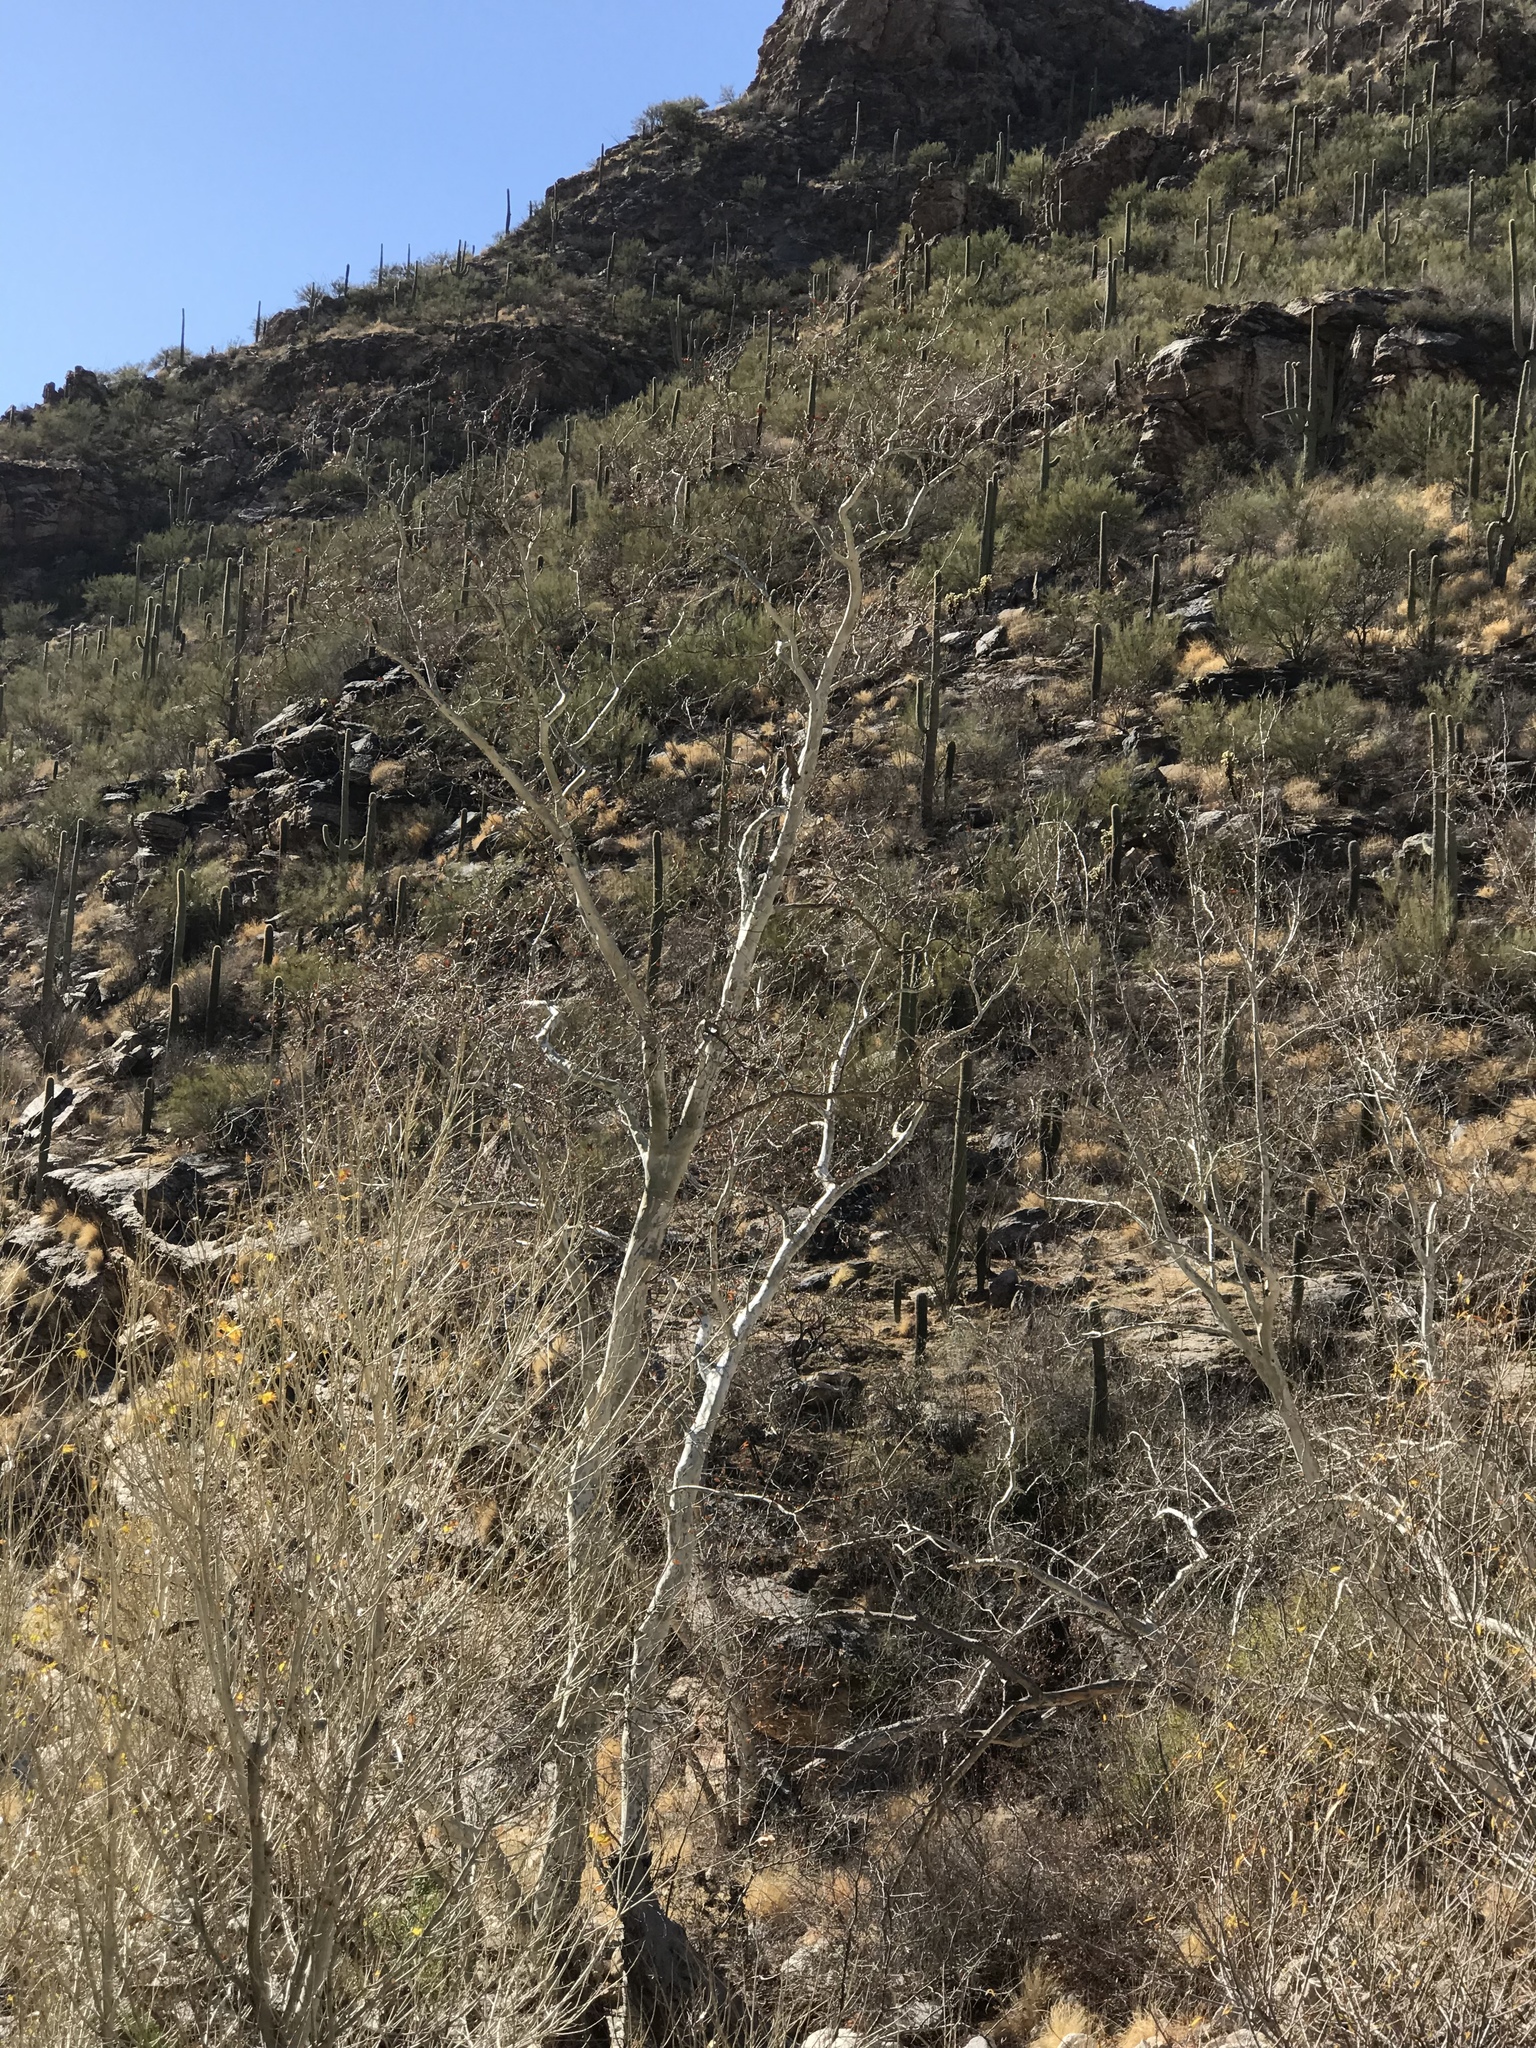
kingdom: Plantae
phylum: Tracheophyta
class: Magnoliopsida
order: Proteales
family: Platanaceae
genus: Platanus
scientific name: Platanus wrightii
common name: Arizona sycamore
